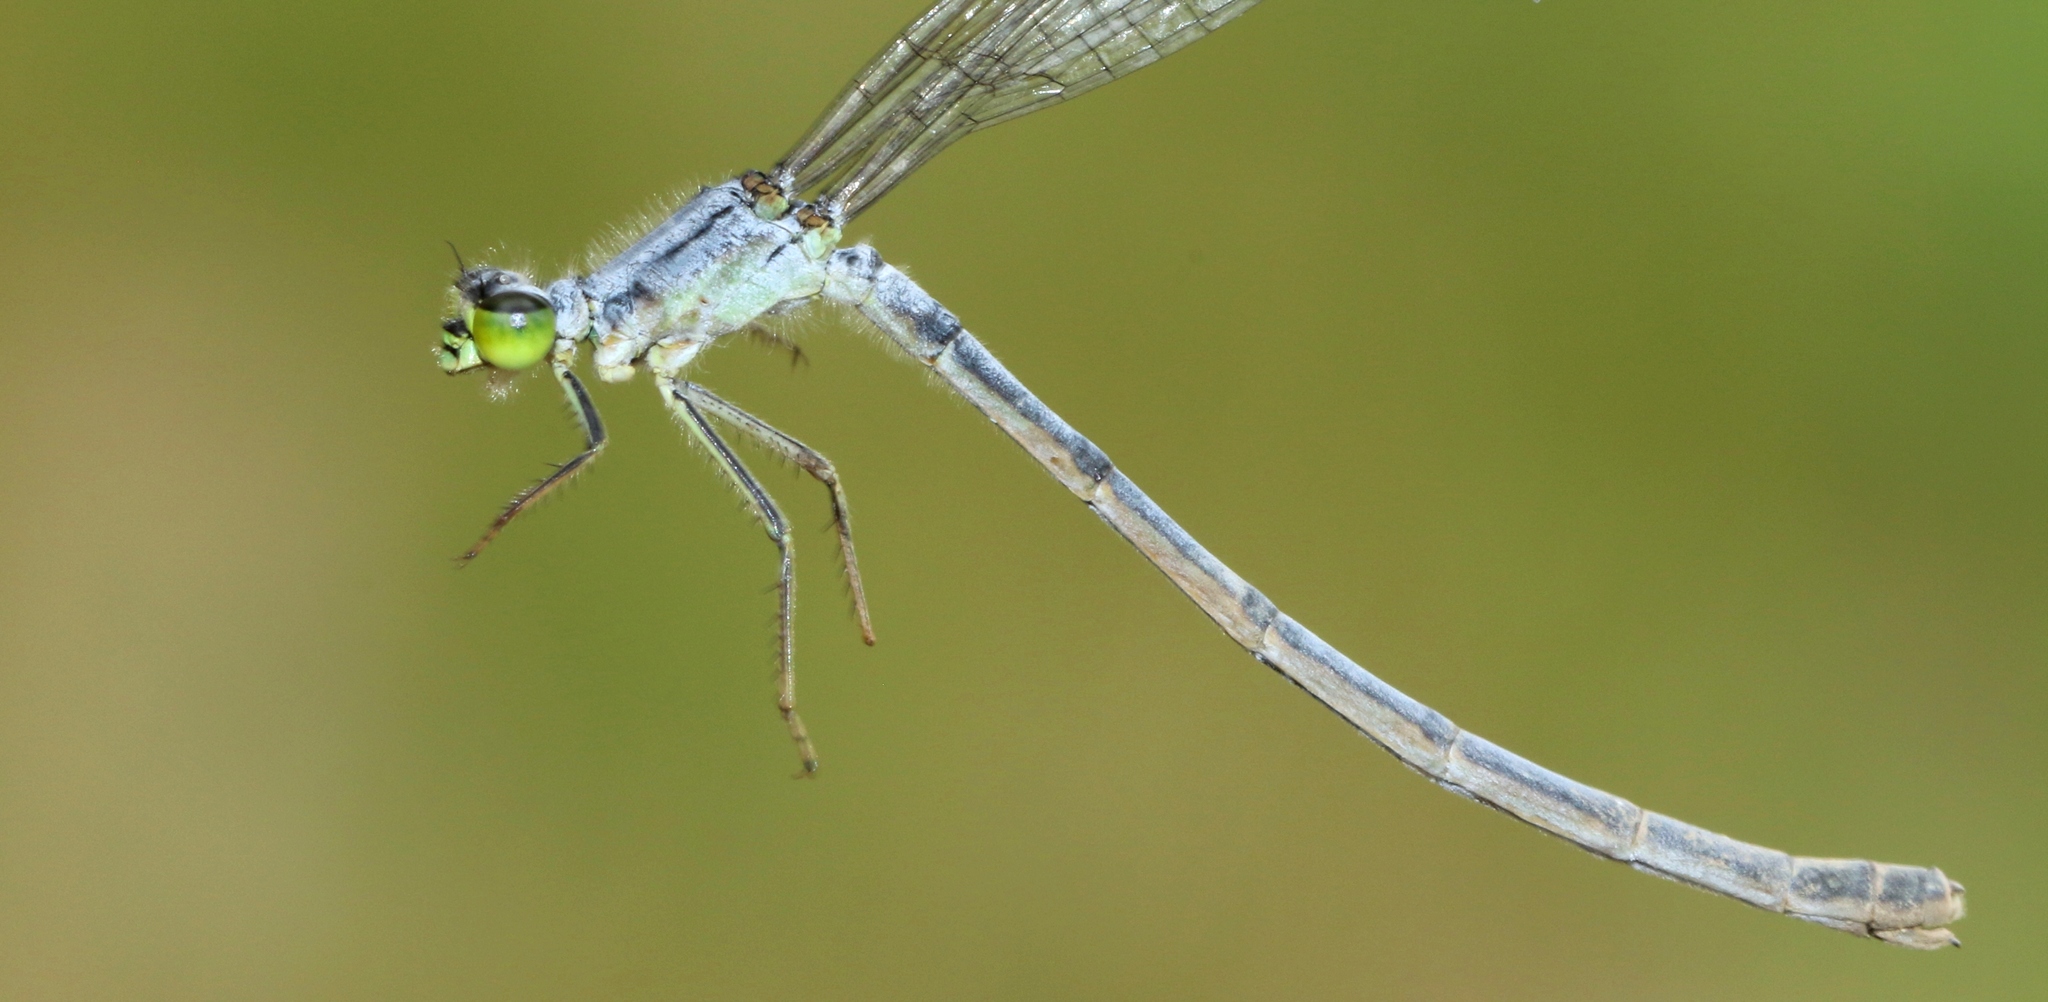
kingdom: Animalia
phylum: Arthropoda
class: Insecta
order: Odonata
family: Coenagrionidae
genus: Ischnura
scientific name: Ischnura verticalis
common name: Eastern forktail
